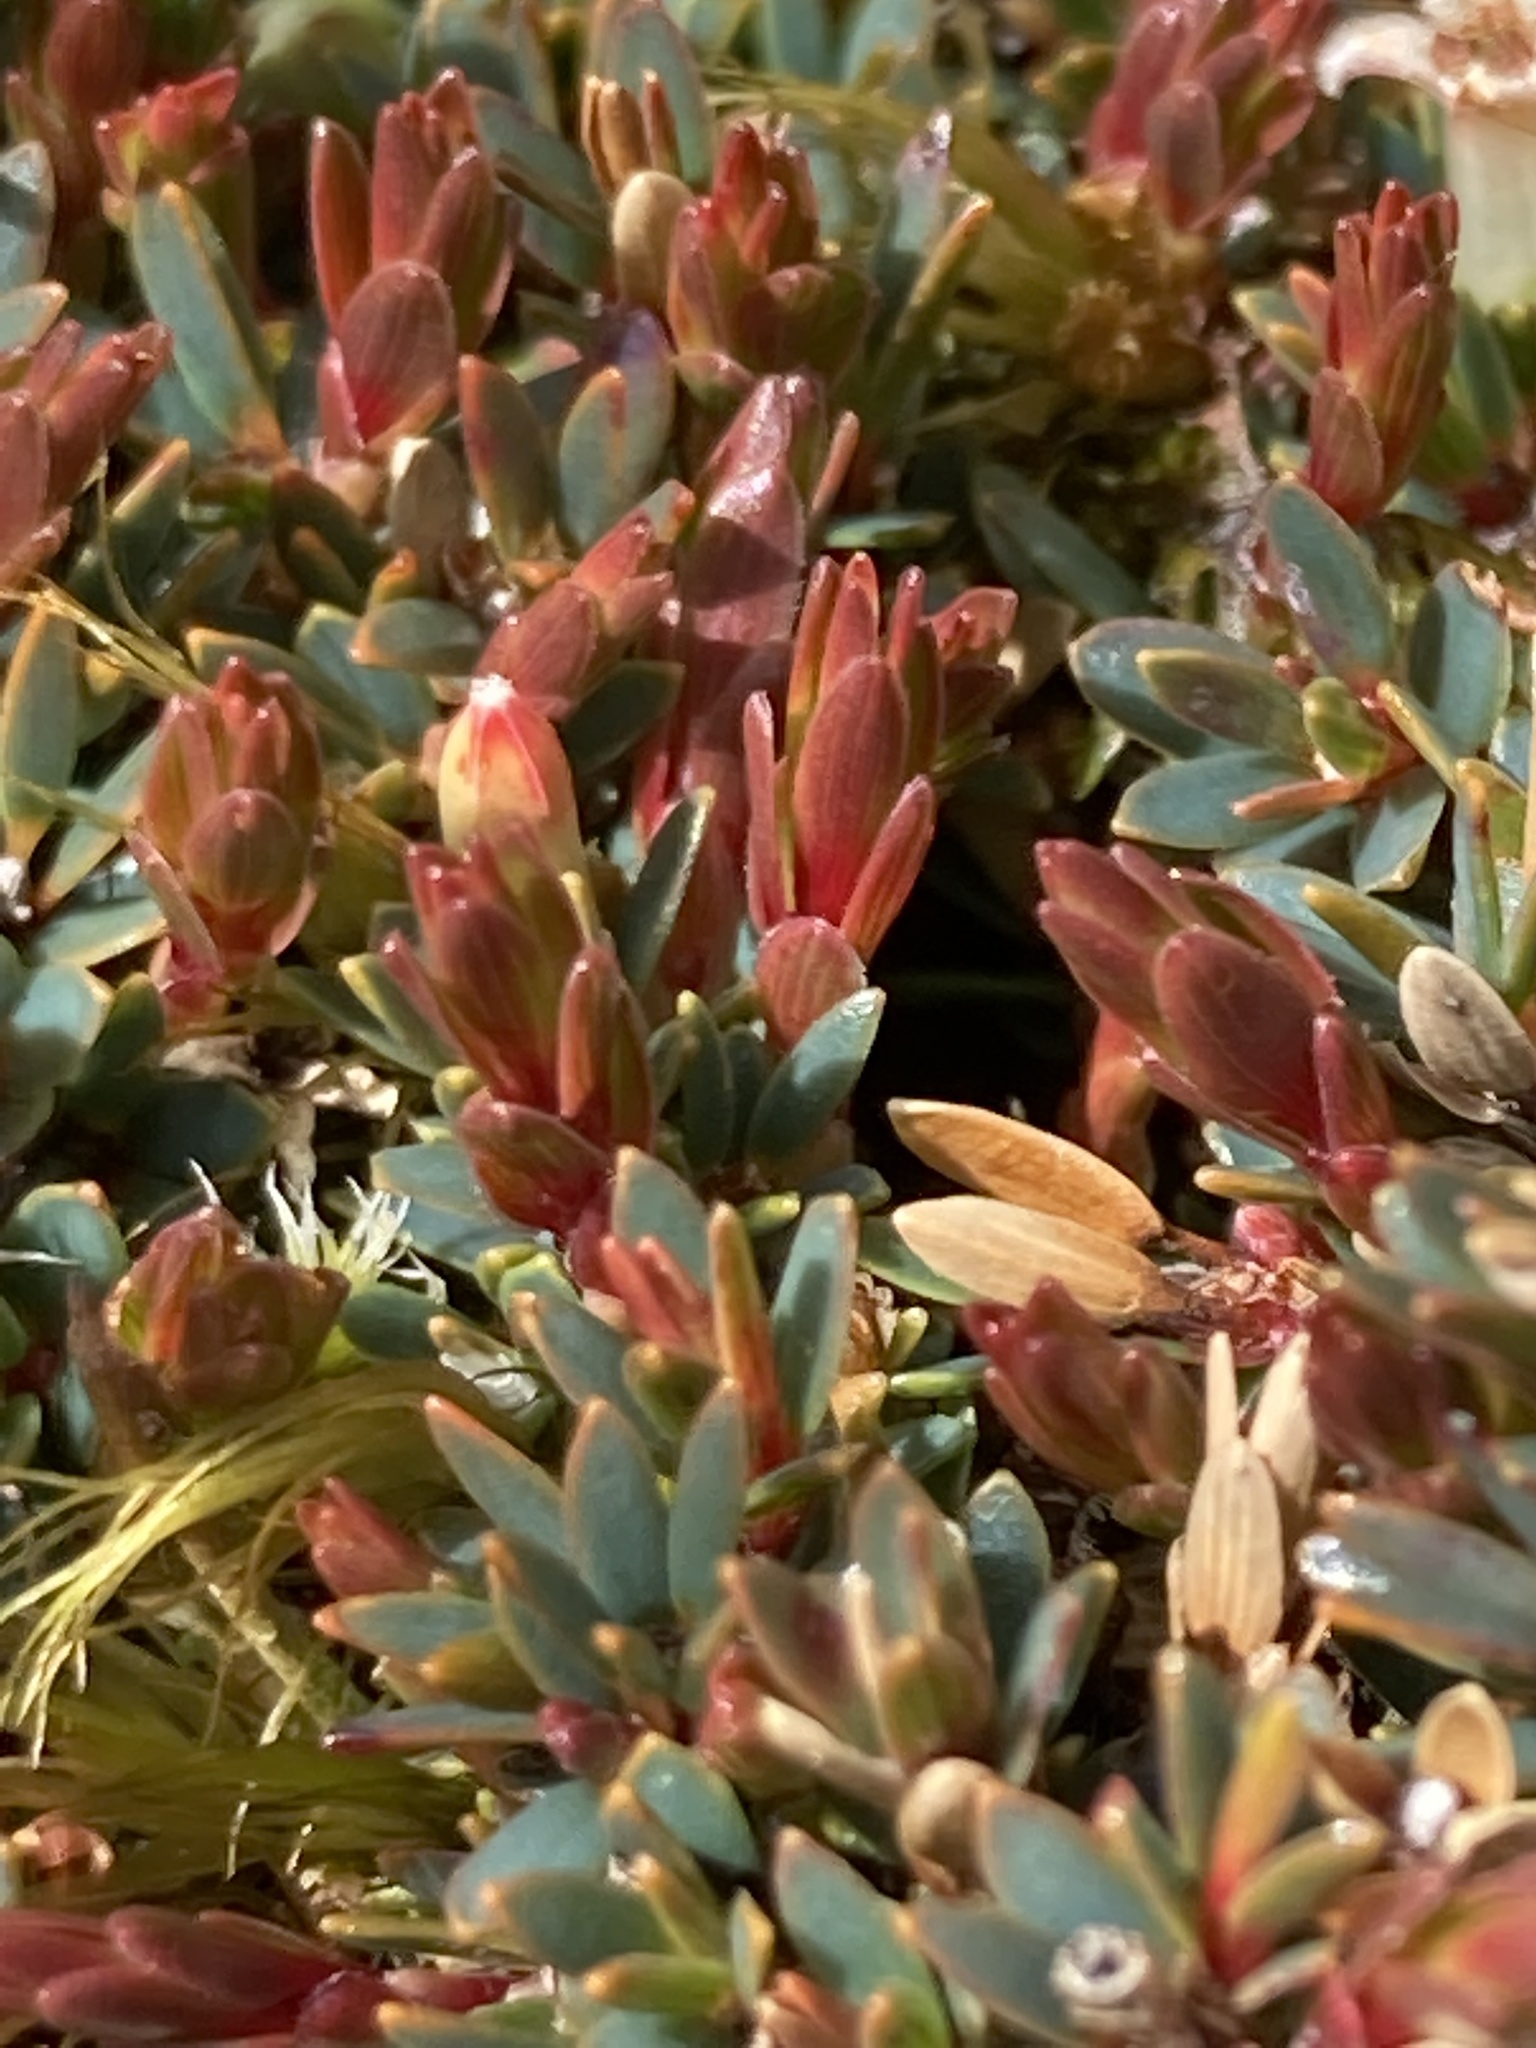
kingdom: Plantae
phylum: Tracheophyta
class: Magnoliopsida
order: Ericales
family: Ericaceae
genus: Pentachondra
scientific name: Pentachondra pumila
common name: Carpet-heath
